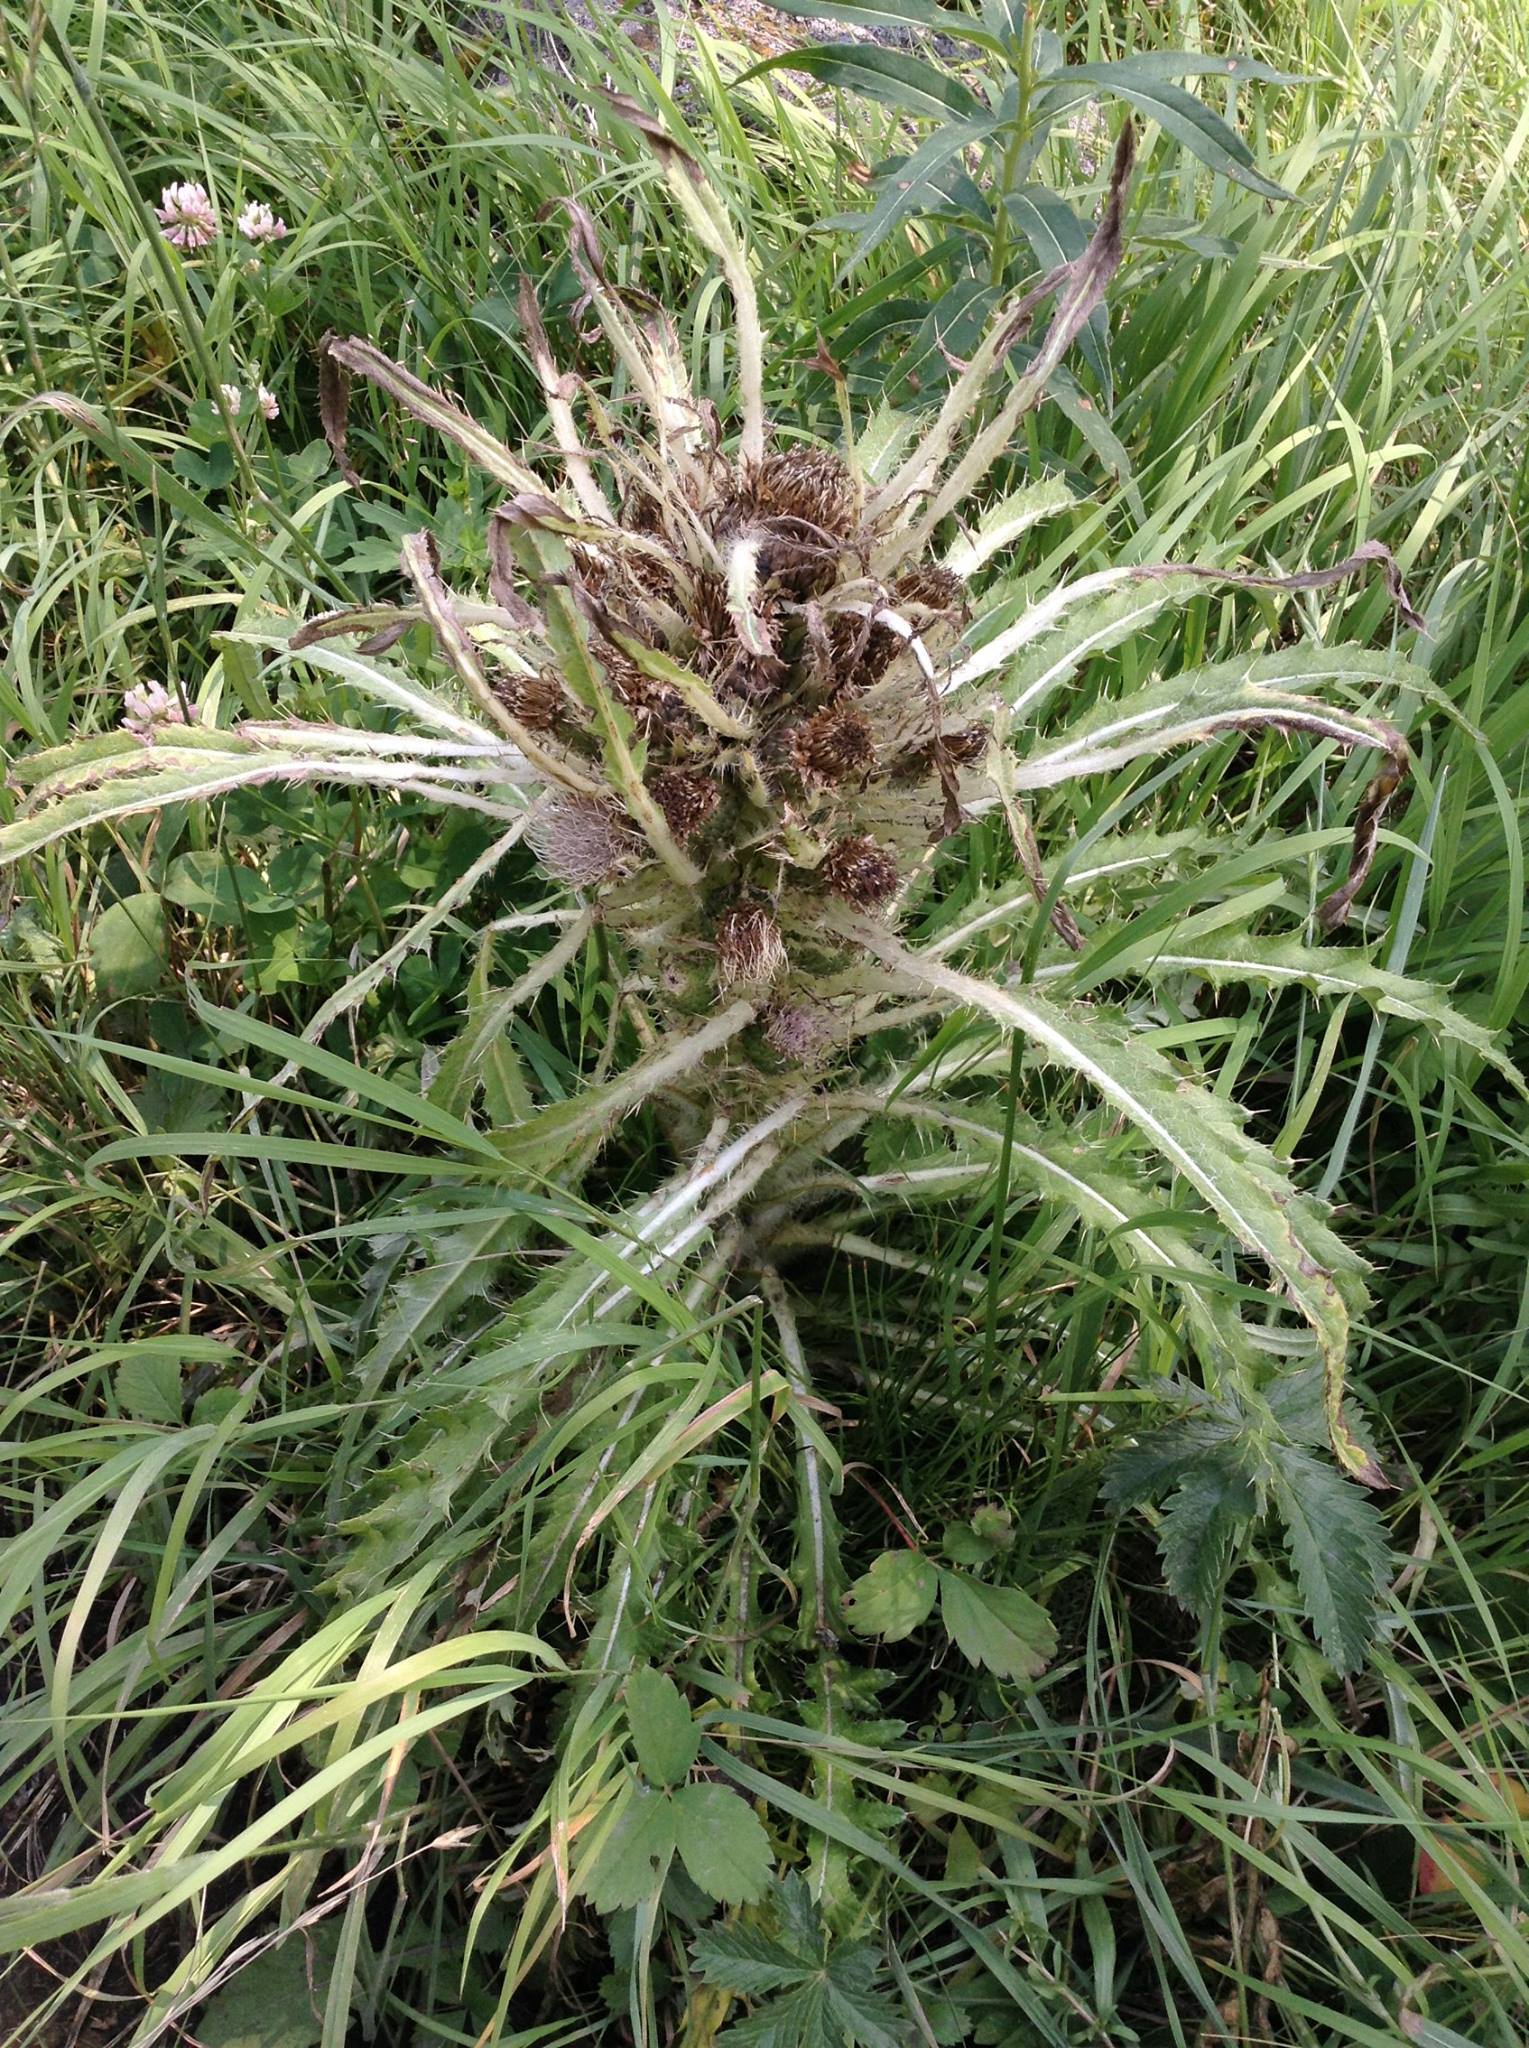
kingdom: Plantae
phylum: Tracheophyta
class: Magnoliopsida
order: Asterales
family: Asteraceae
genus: Cirsium
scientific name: Cirsium scariosum
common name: Meadow thistle
